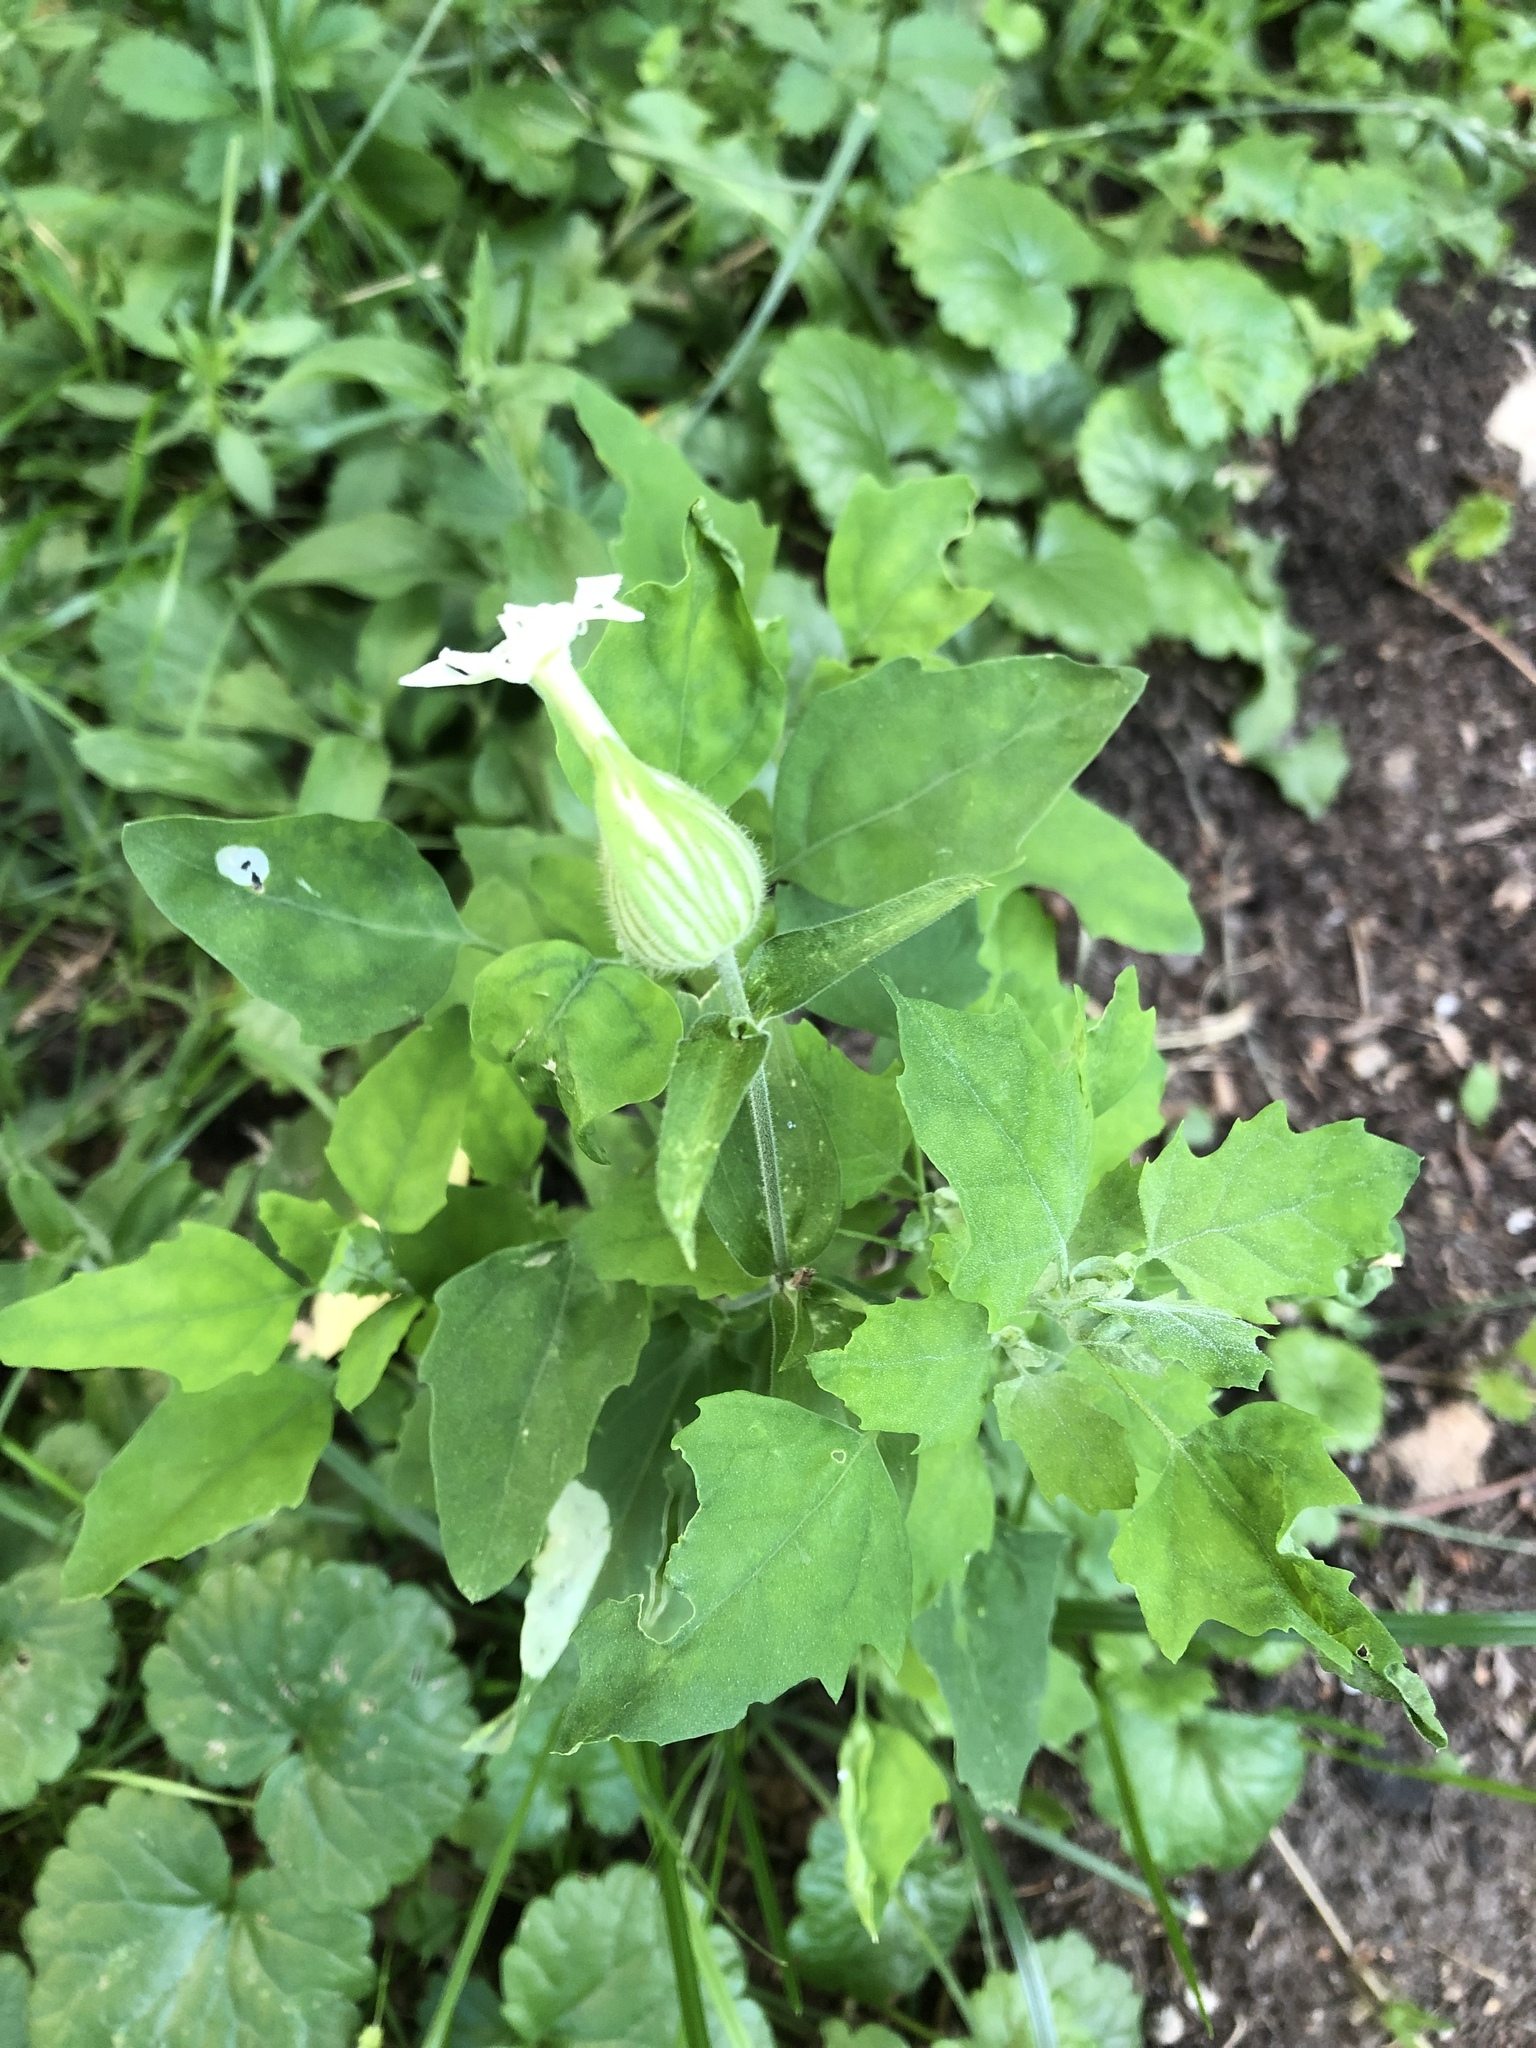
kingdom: Plantae
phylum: Tracheophyta
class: Magnoliopsida
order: Caryophyllales
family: Caryophyllaceae
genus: Silene
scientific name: Silene latifolia
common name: White campion
